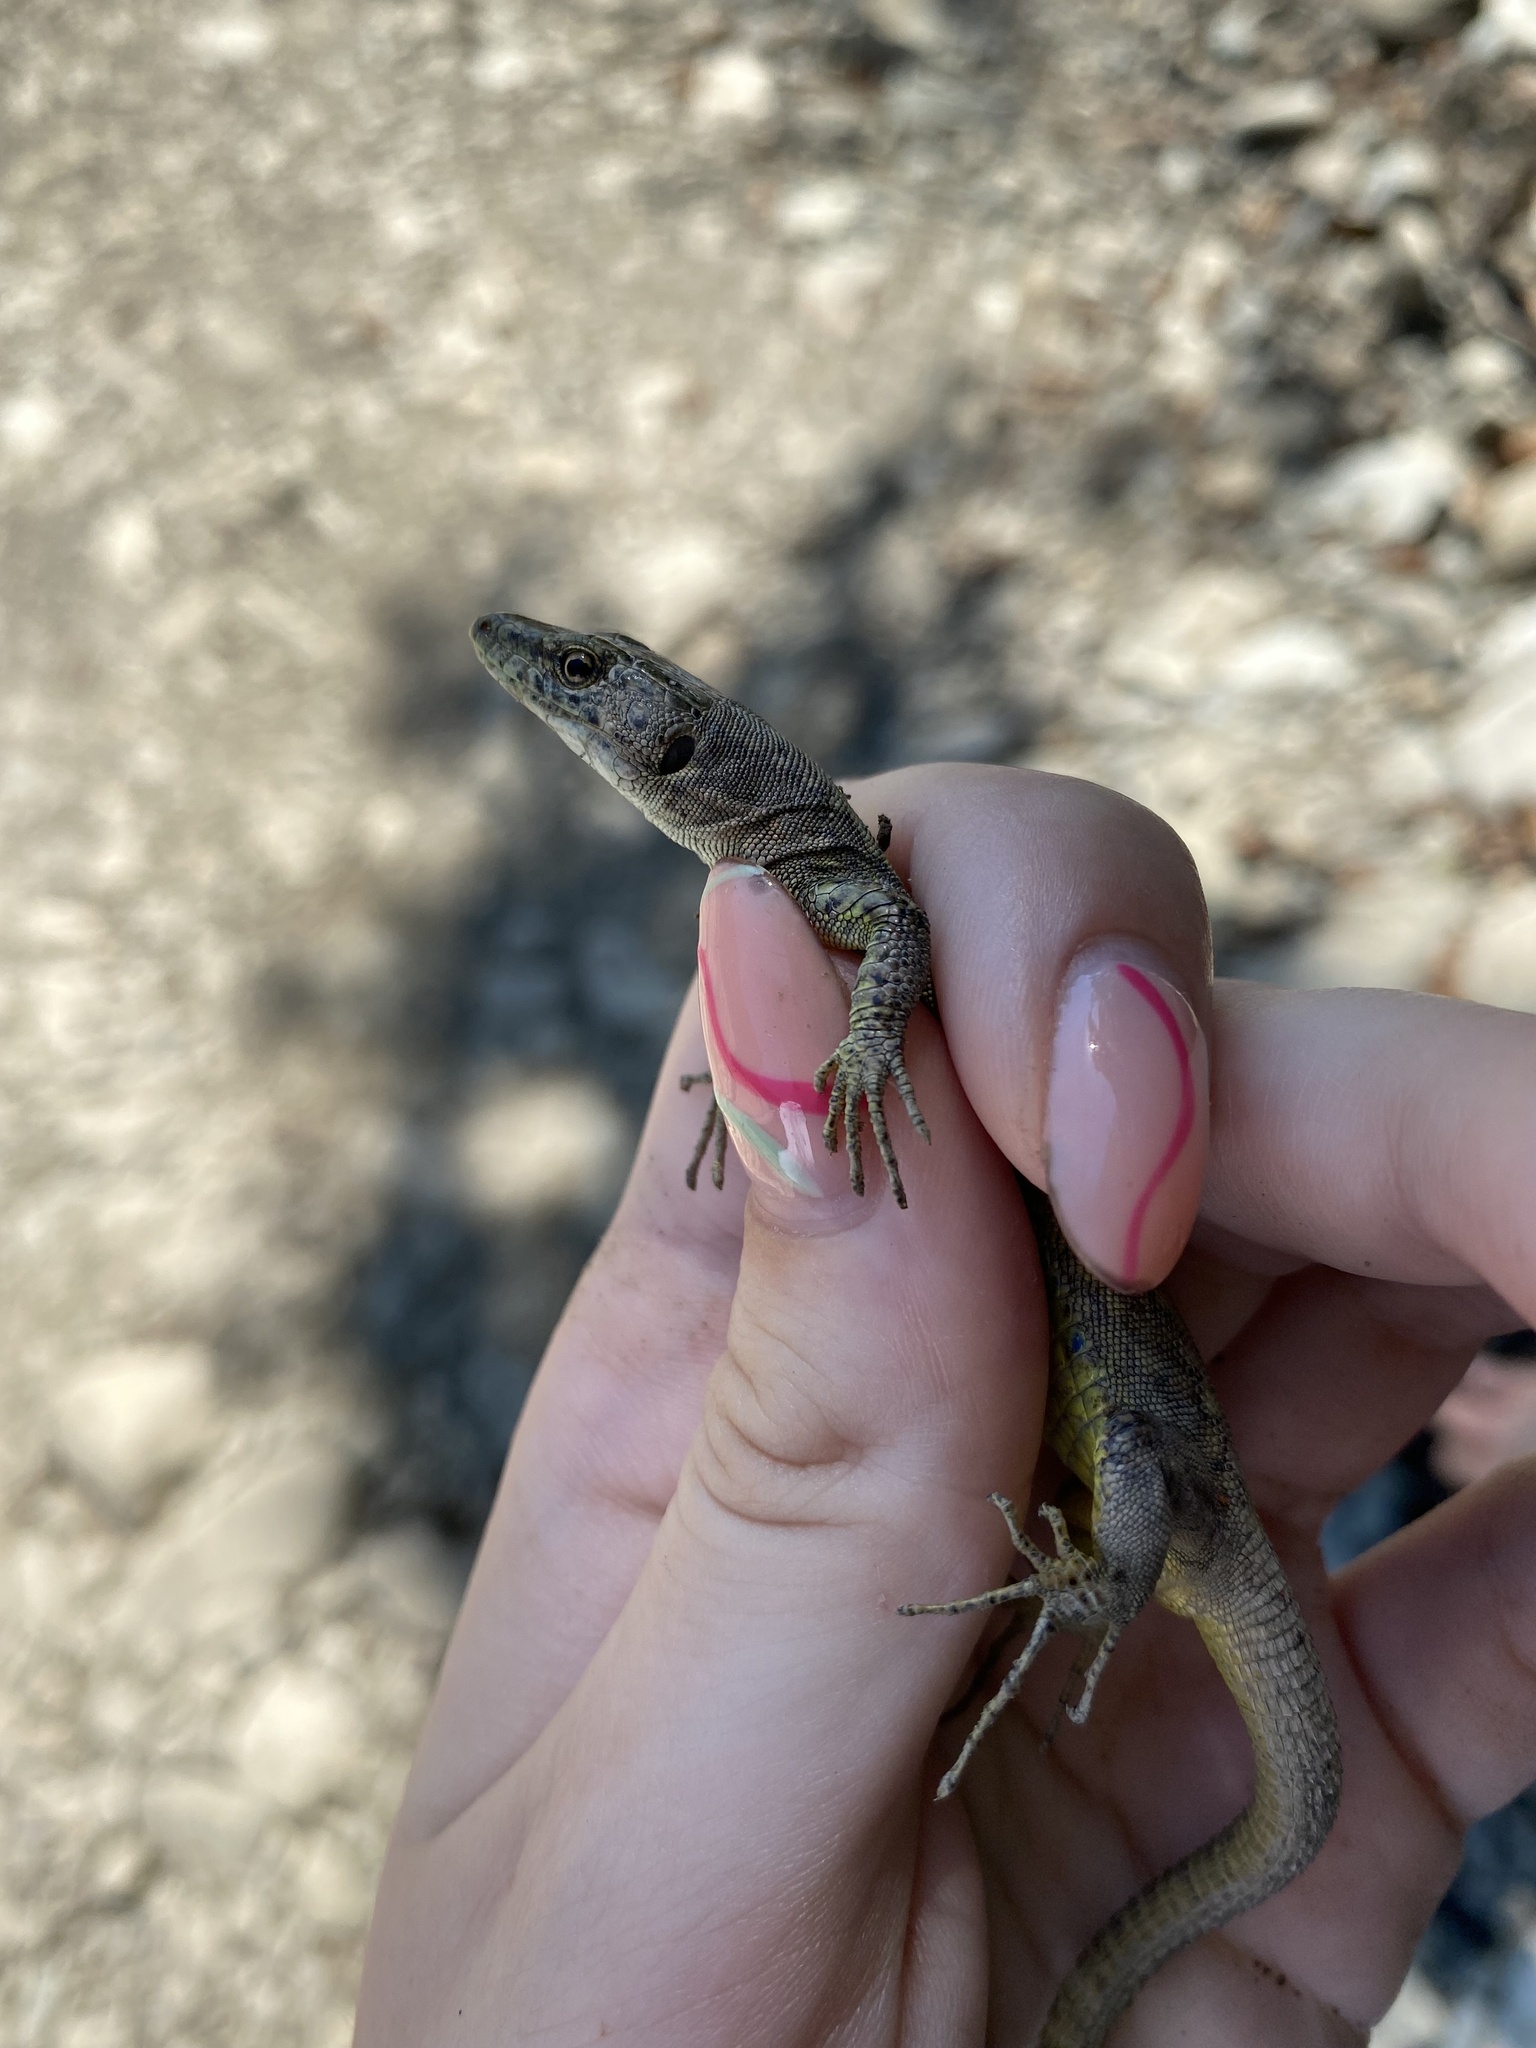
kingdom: Animalia
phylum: Chordata
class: Squamata
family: Lacertidae
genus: Darevskia
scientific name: Darevskia brauneri
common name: Brauner's rock lizard
